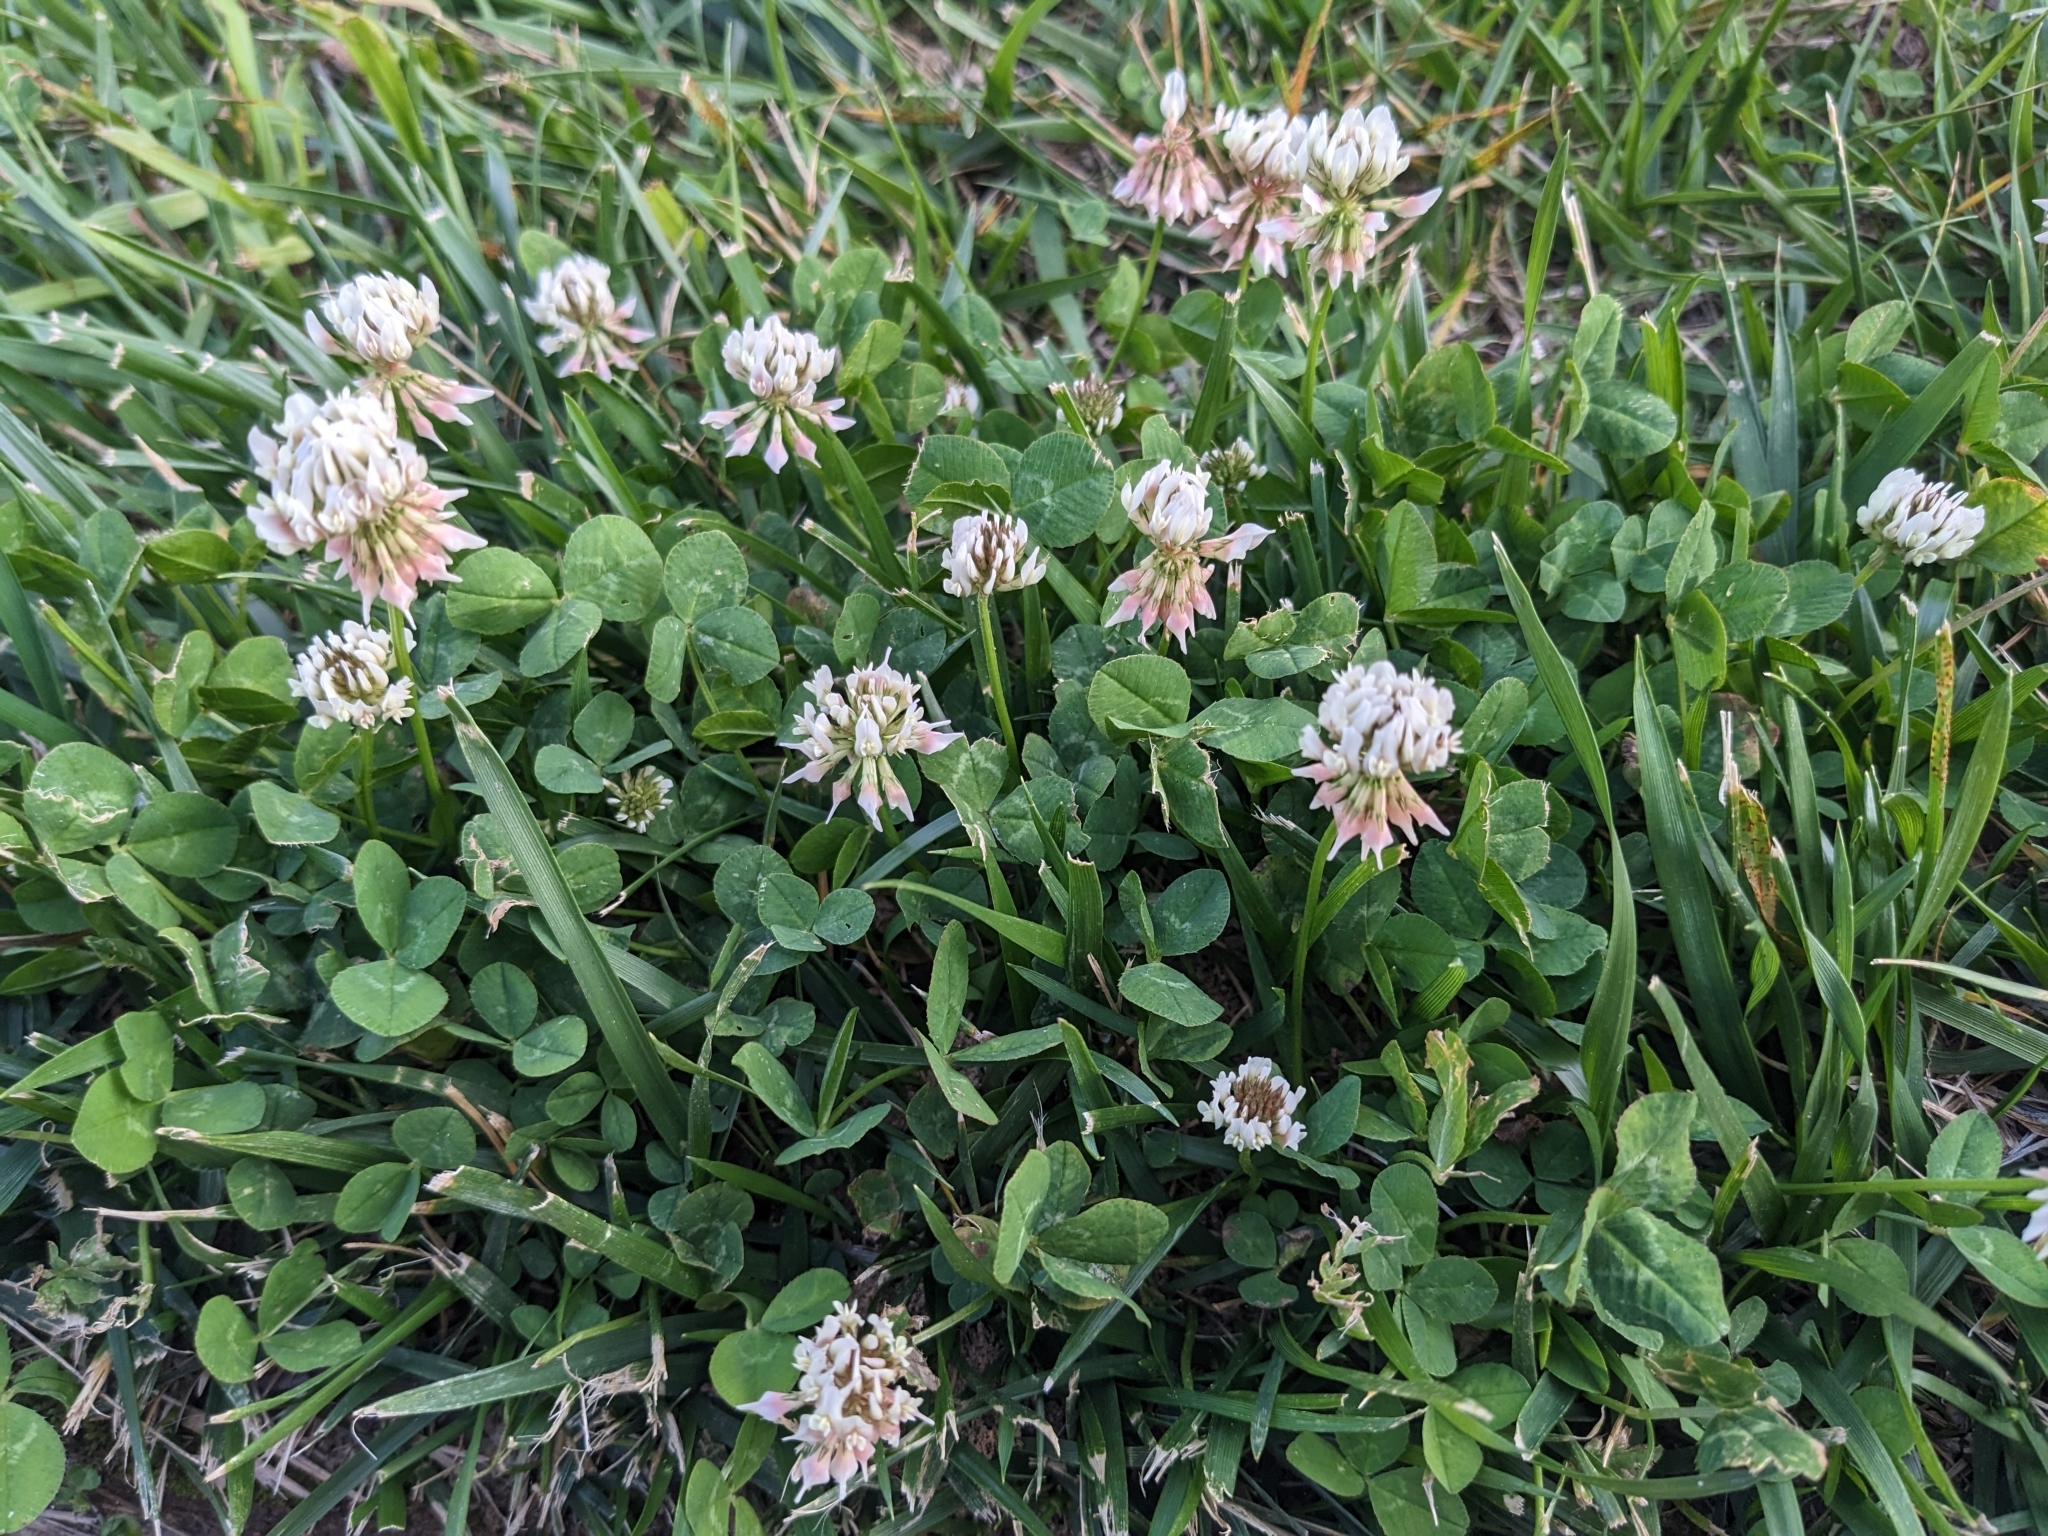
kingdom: Plantae
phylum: Tracheophyta
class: Magnoliopsida
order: Fabales
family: Fabaceae
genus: Trifolium
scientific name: Trifolium repens
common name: White clover
